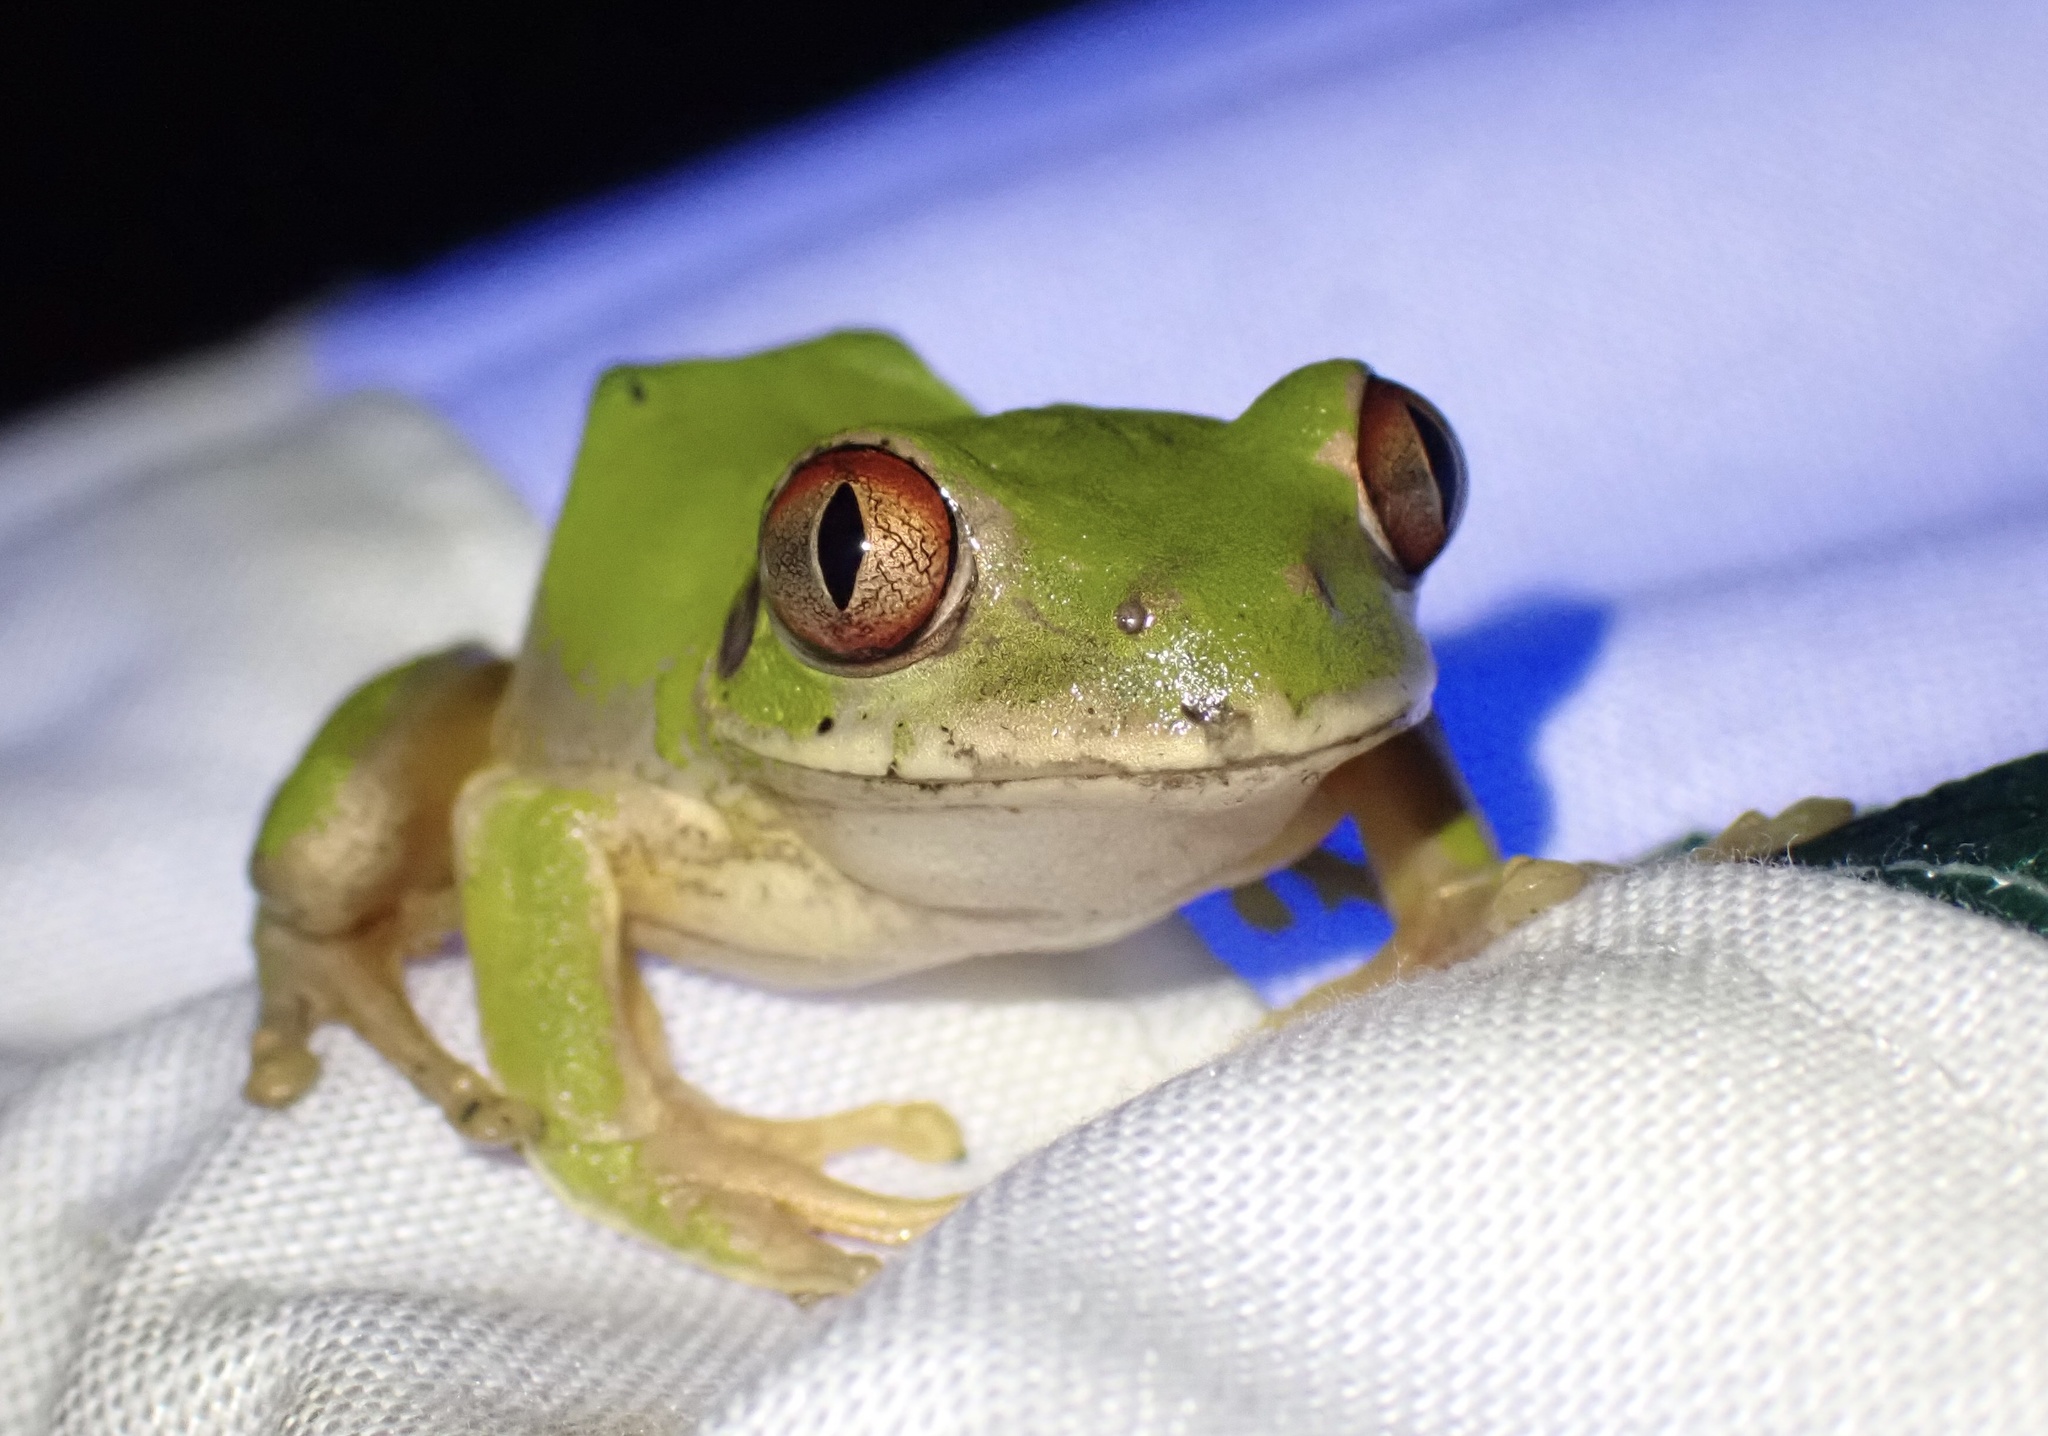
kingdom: Animalia
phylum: Chordata
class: Amphibia
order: Anura
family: Arthroleptidae
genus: Leptopelis
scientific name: Leptopelis natalensis
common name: Natal tree frog
